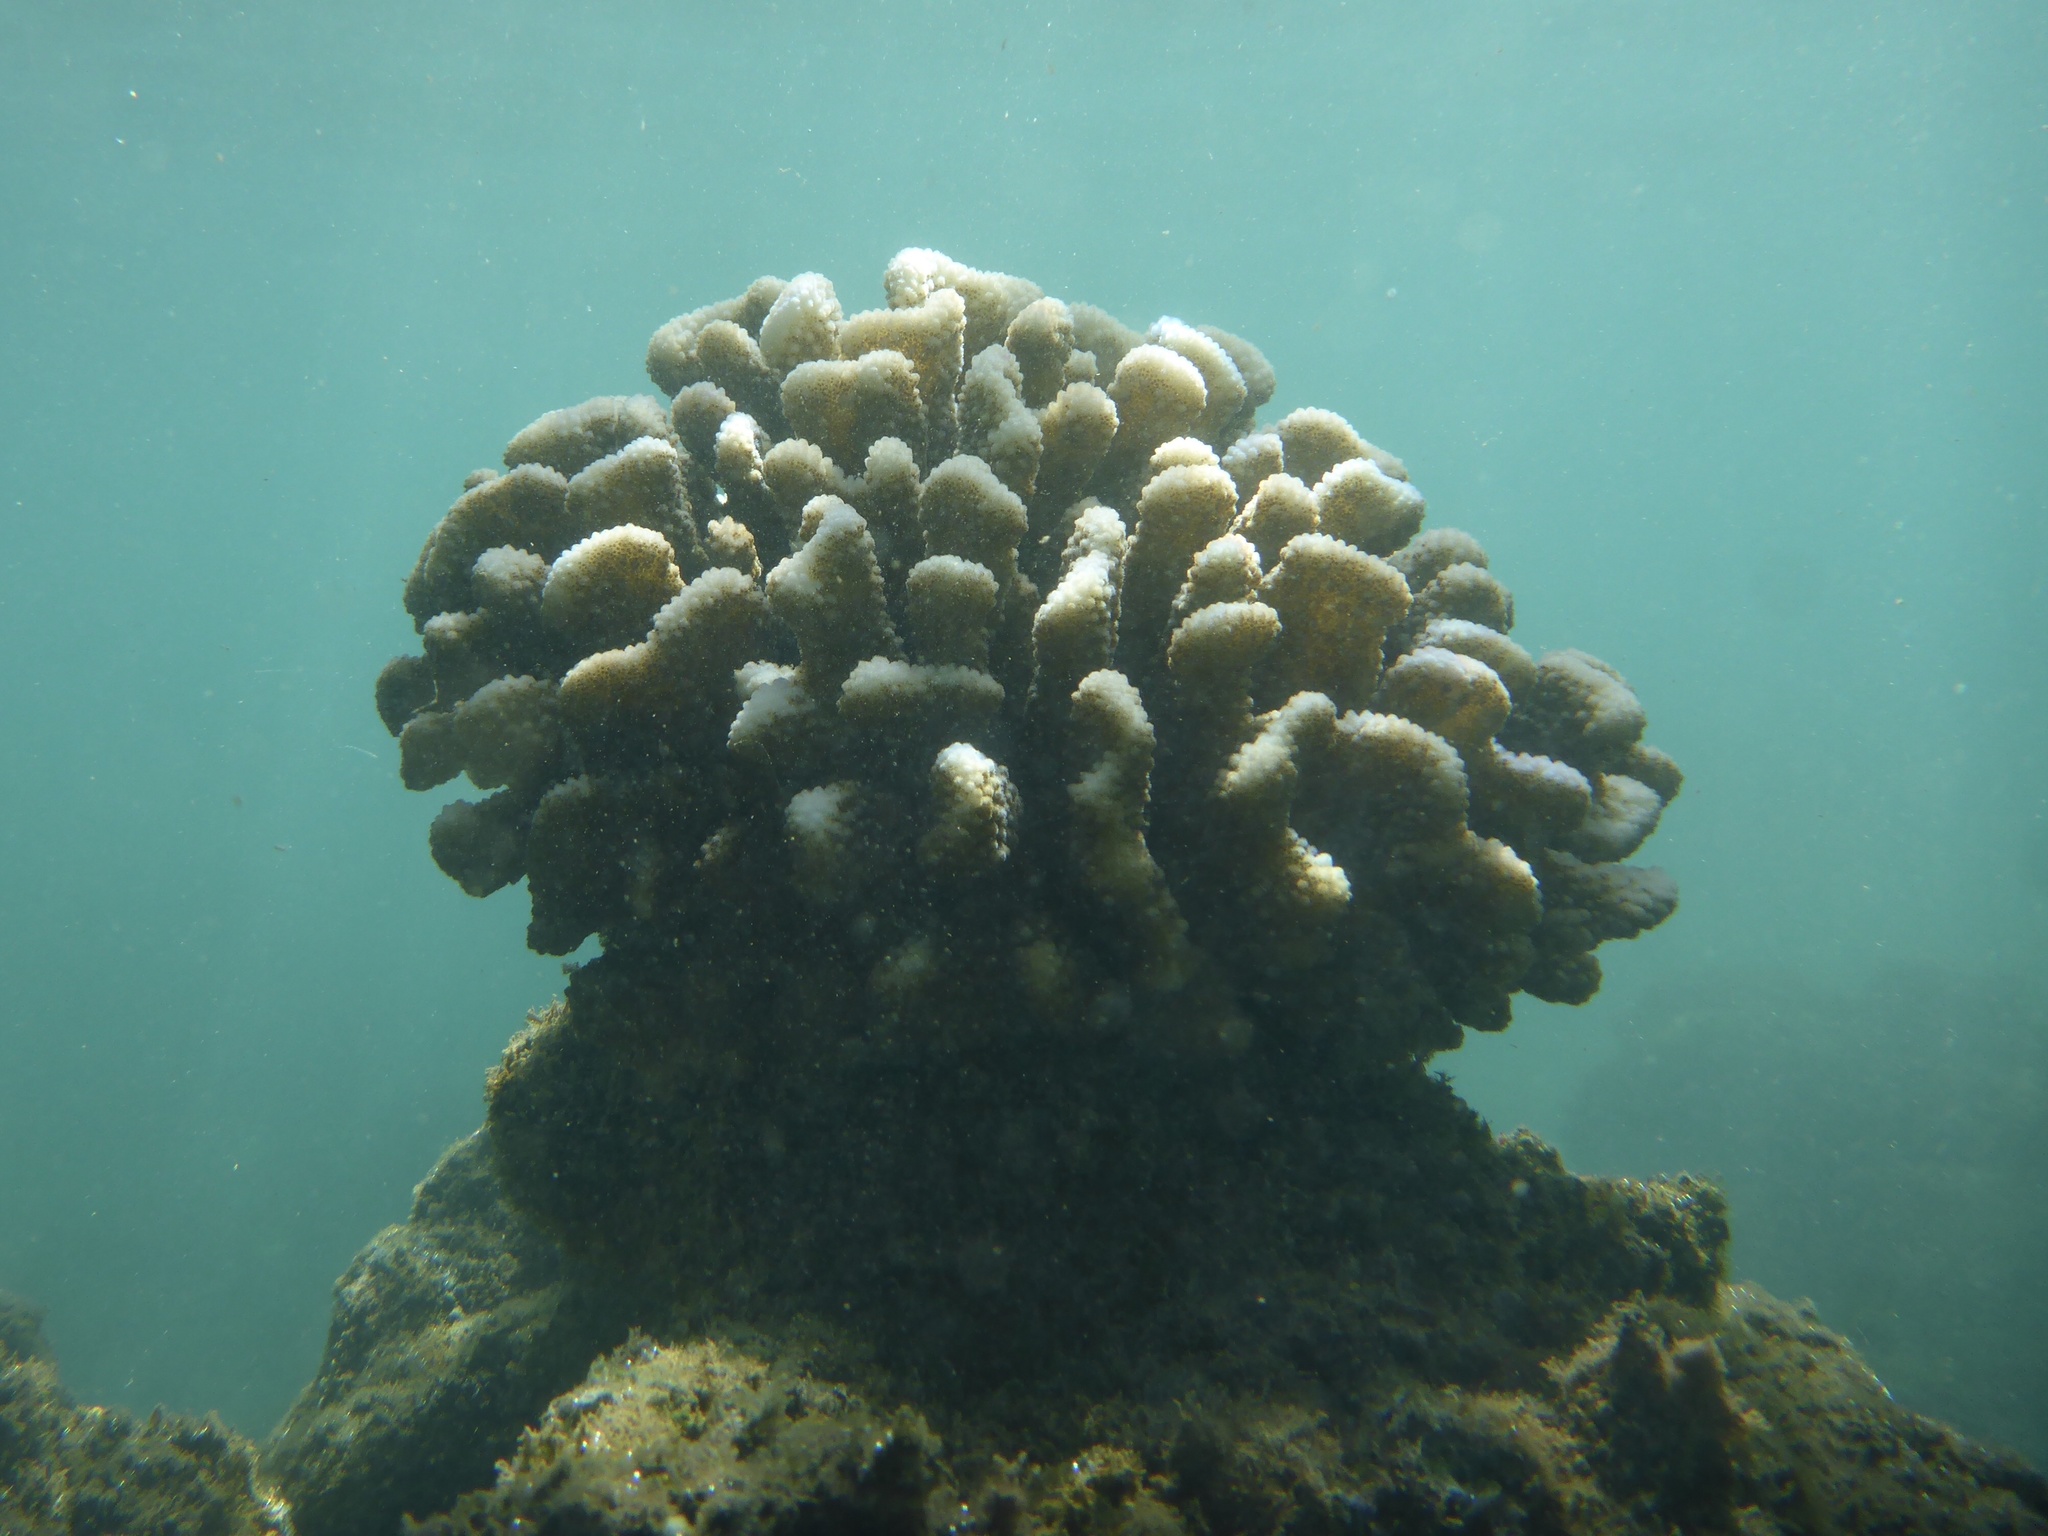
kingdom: Animalia
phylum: Cnidaria
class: Anthozoa
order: Scleractinia
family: Pocilloporidae
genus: Pocillopora
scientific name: Pocillopora meandrina
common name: Cauliflower coral
